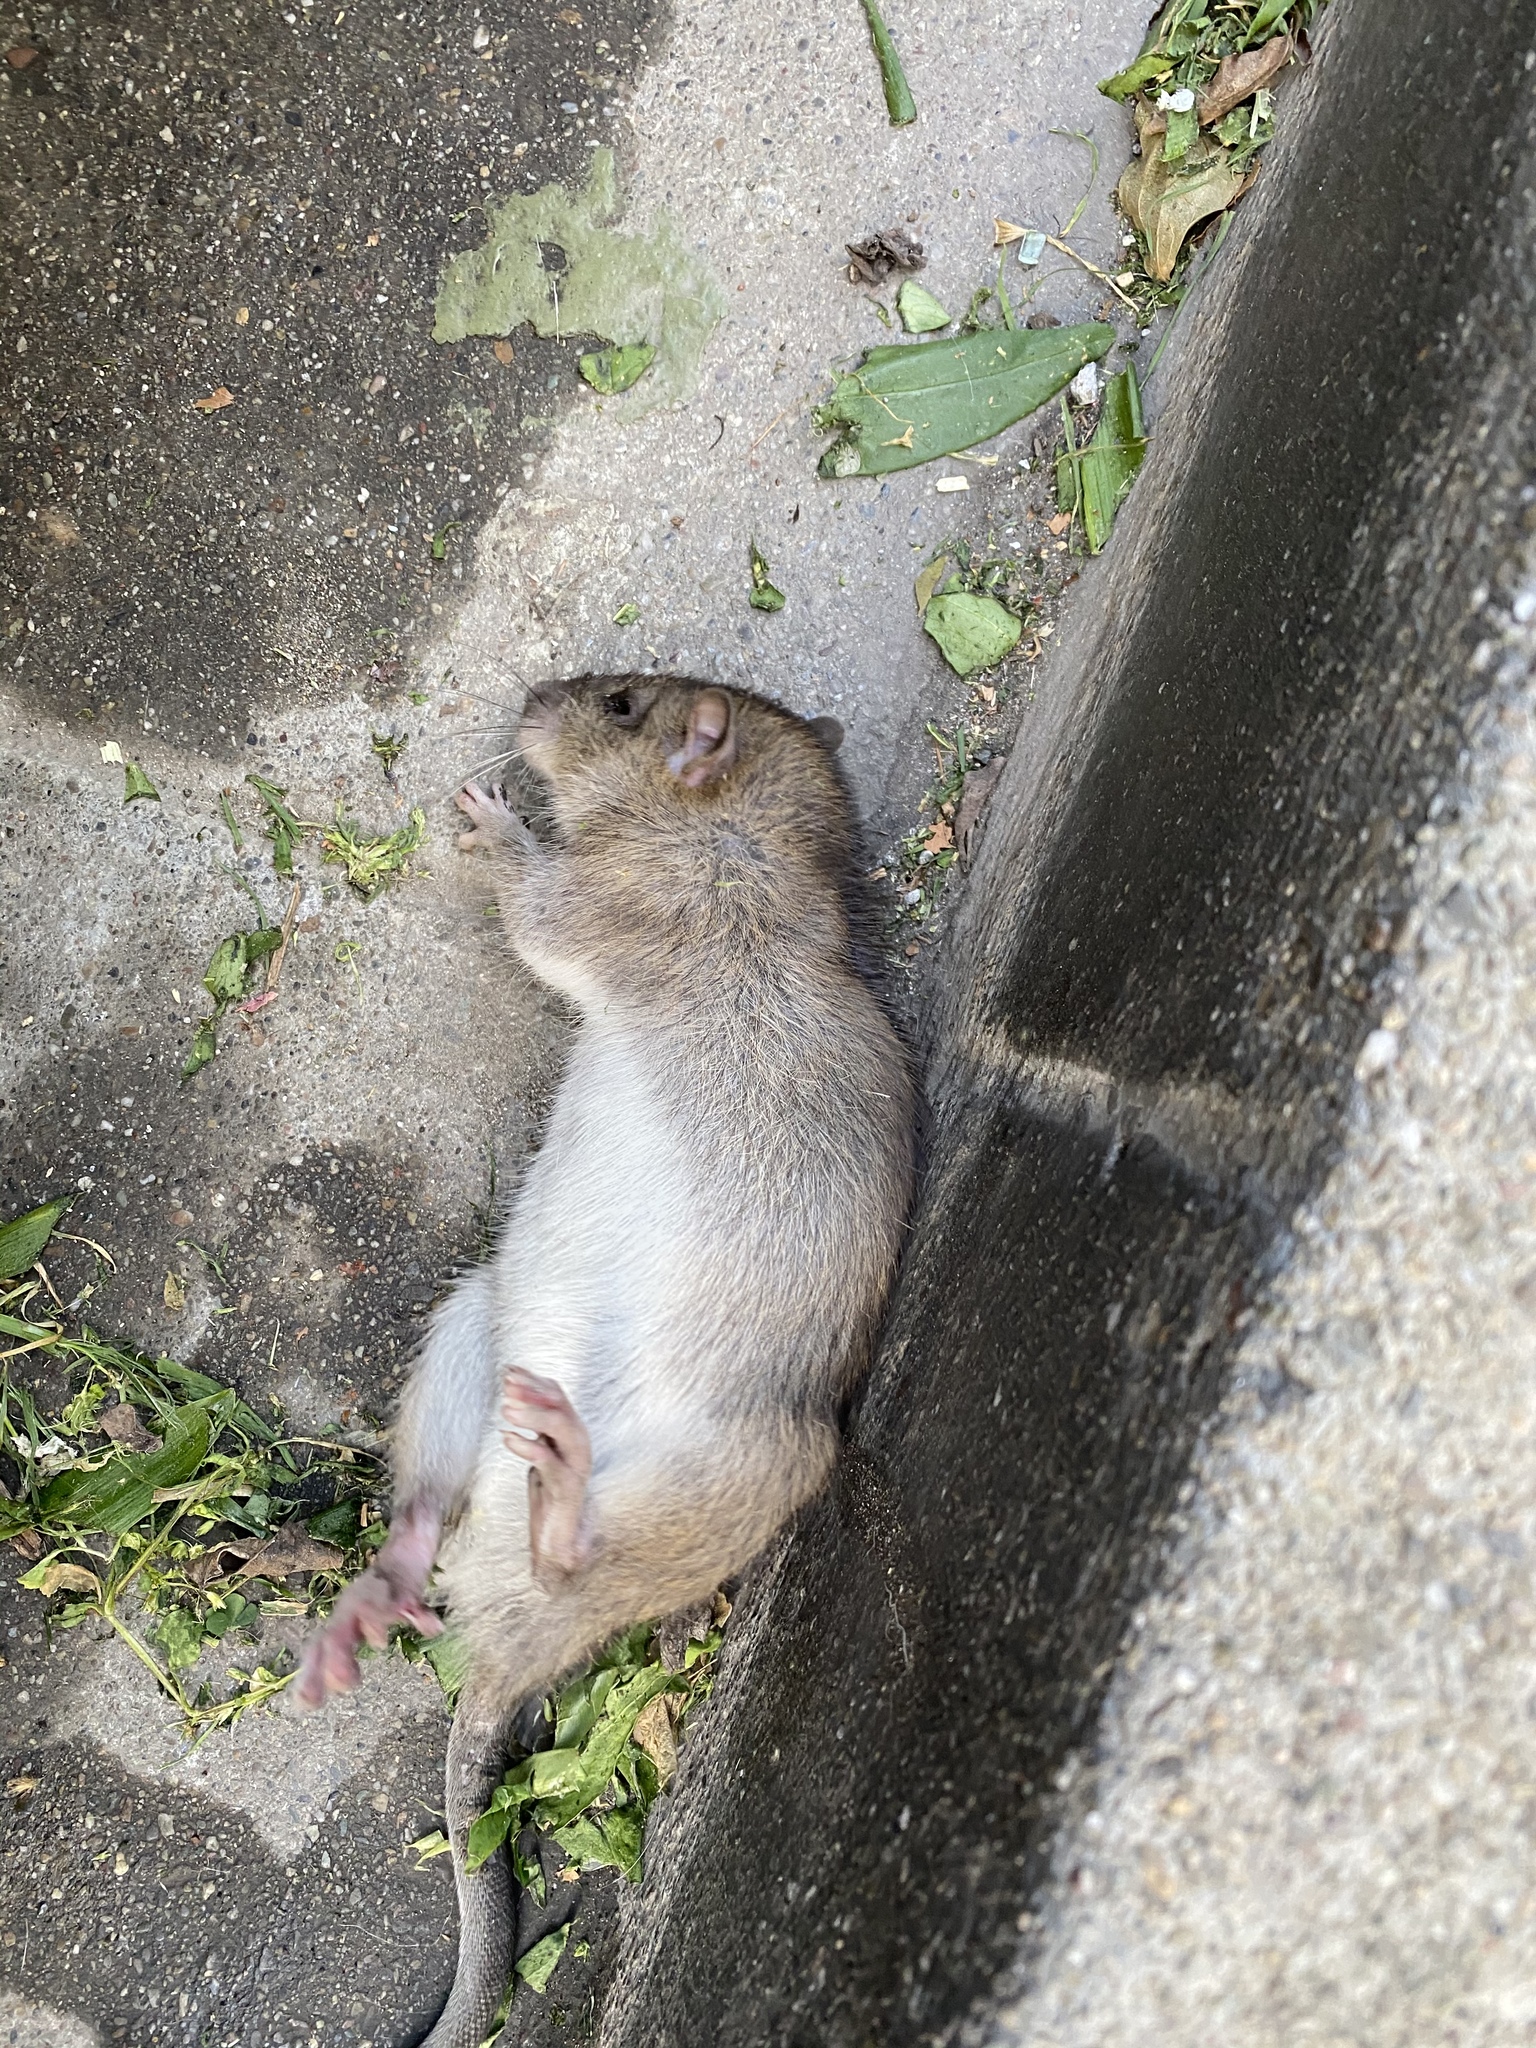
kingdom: Animalia
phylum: Chordata
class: Mammalia
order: Rodentia
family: Muridae
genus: Rattus
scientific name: Rattus norvegicus
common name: Brown rat
